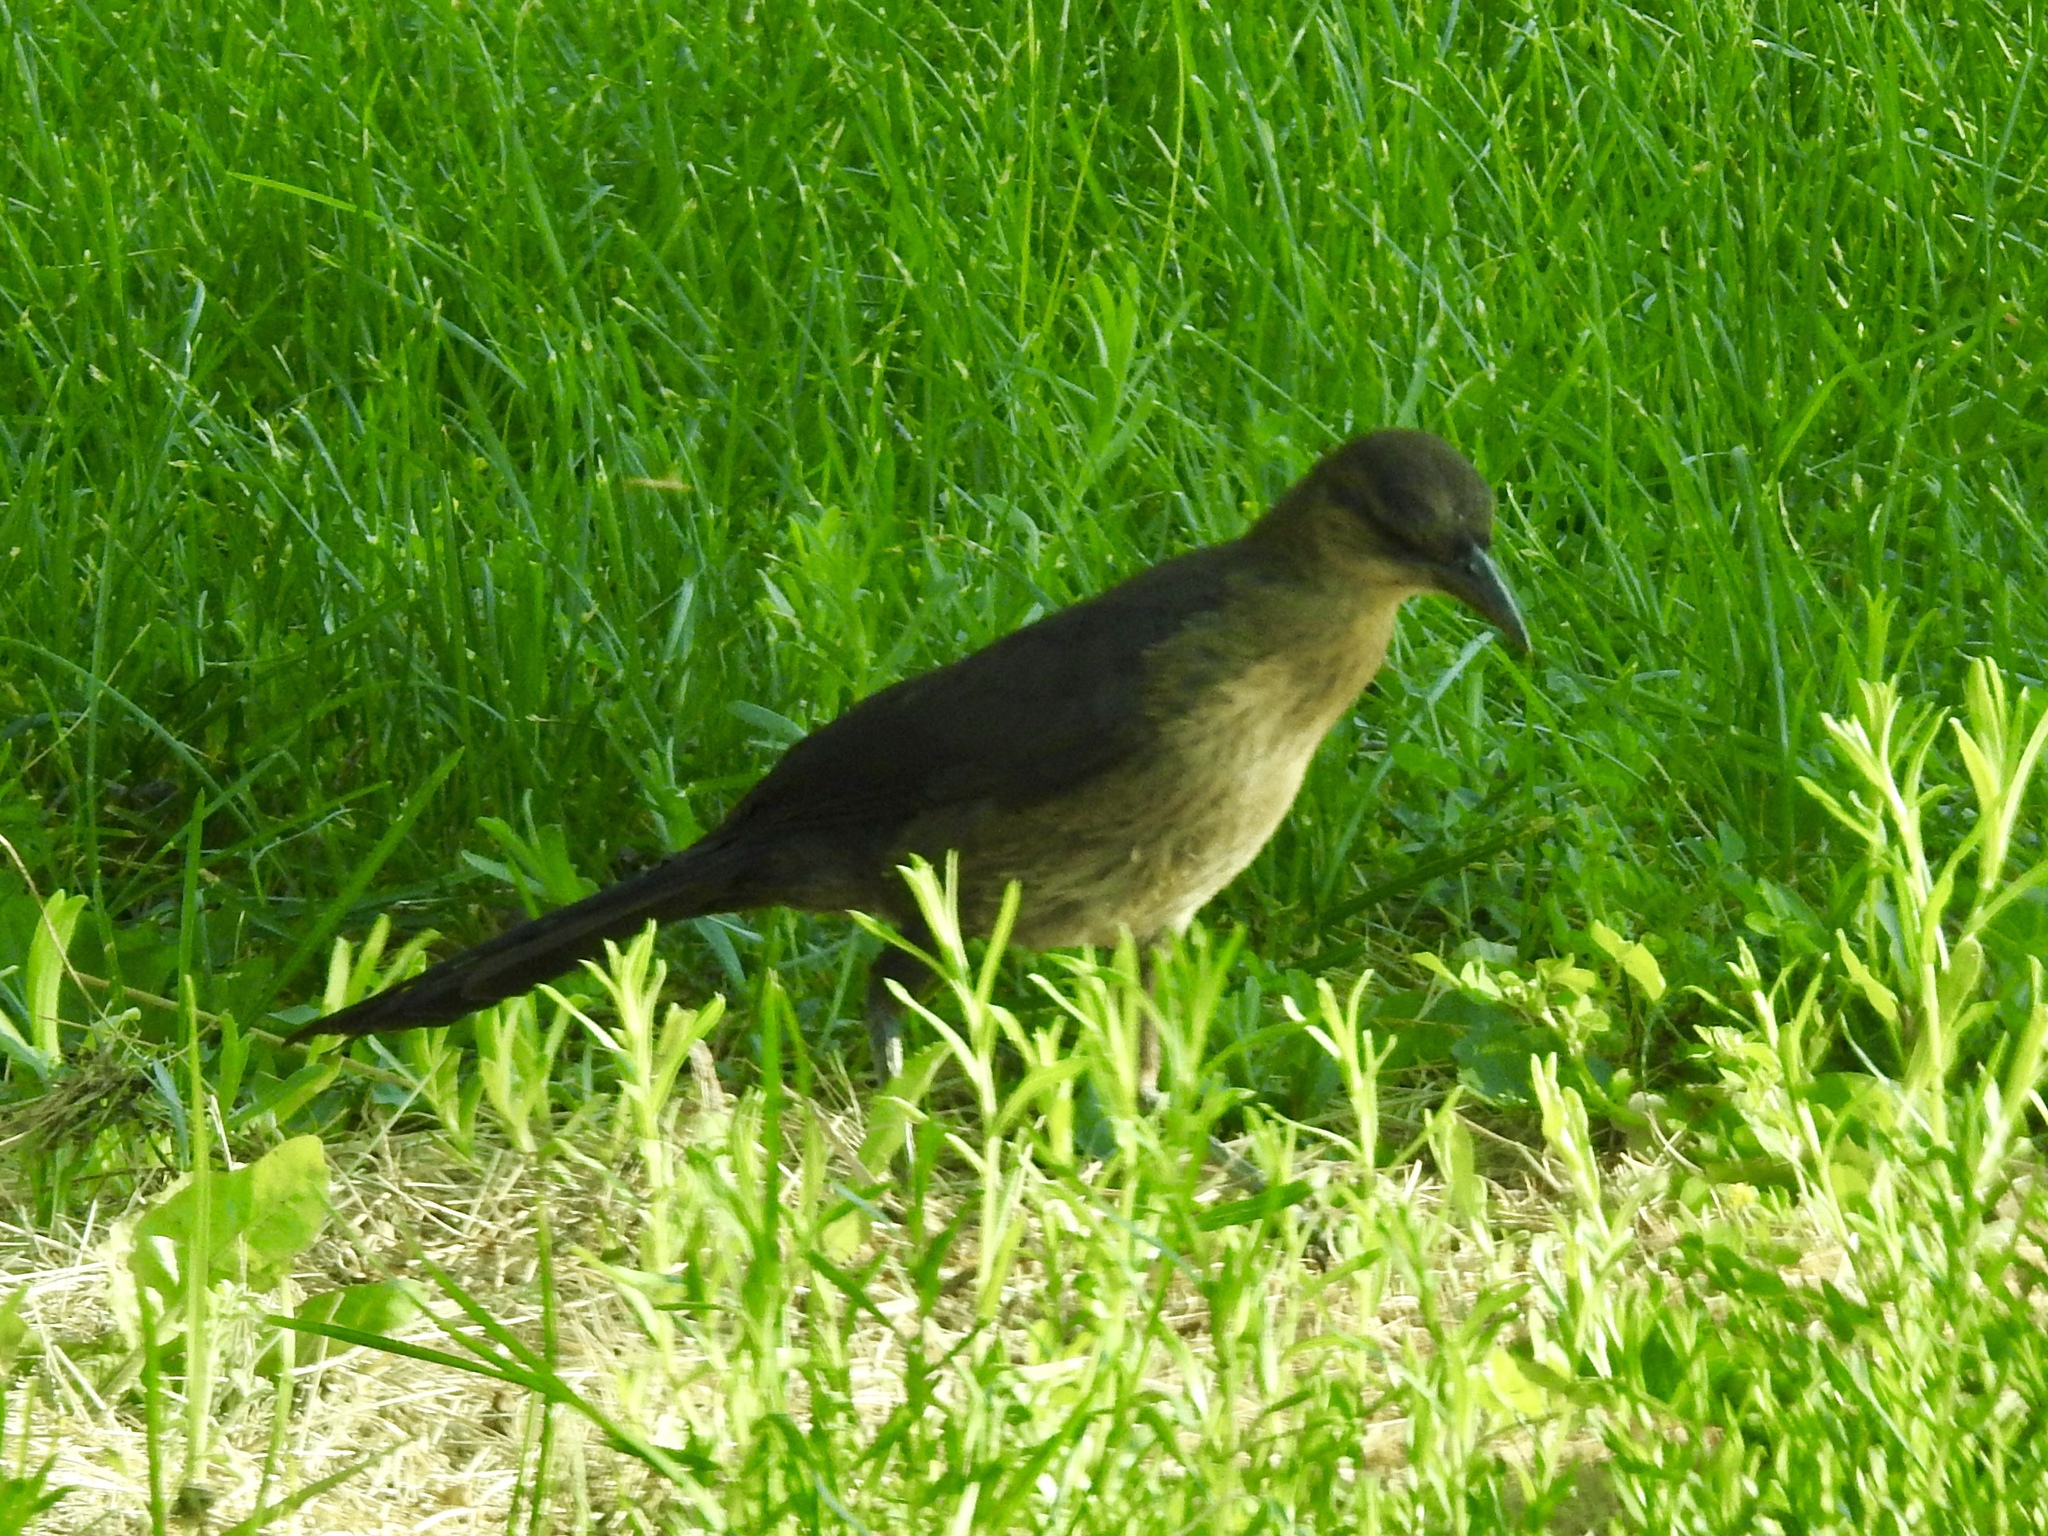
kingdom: Animalia
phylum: Chordata
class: Aves
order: Passeriformes
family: Icteridae
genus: Quiscalus
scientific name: Quiscalus mexicanus
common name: Great-tailed grackle
